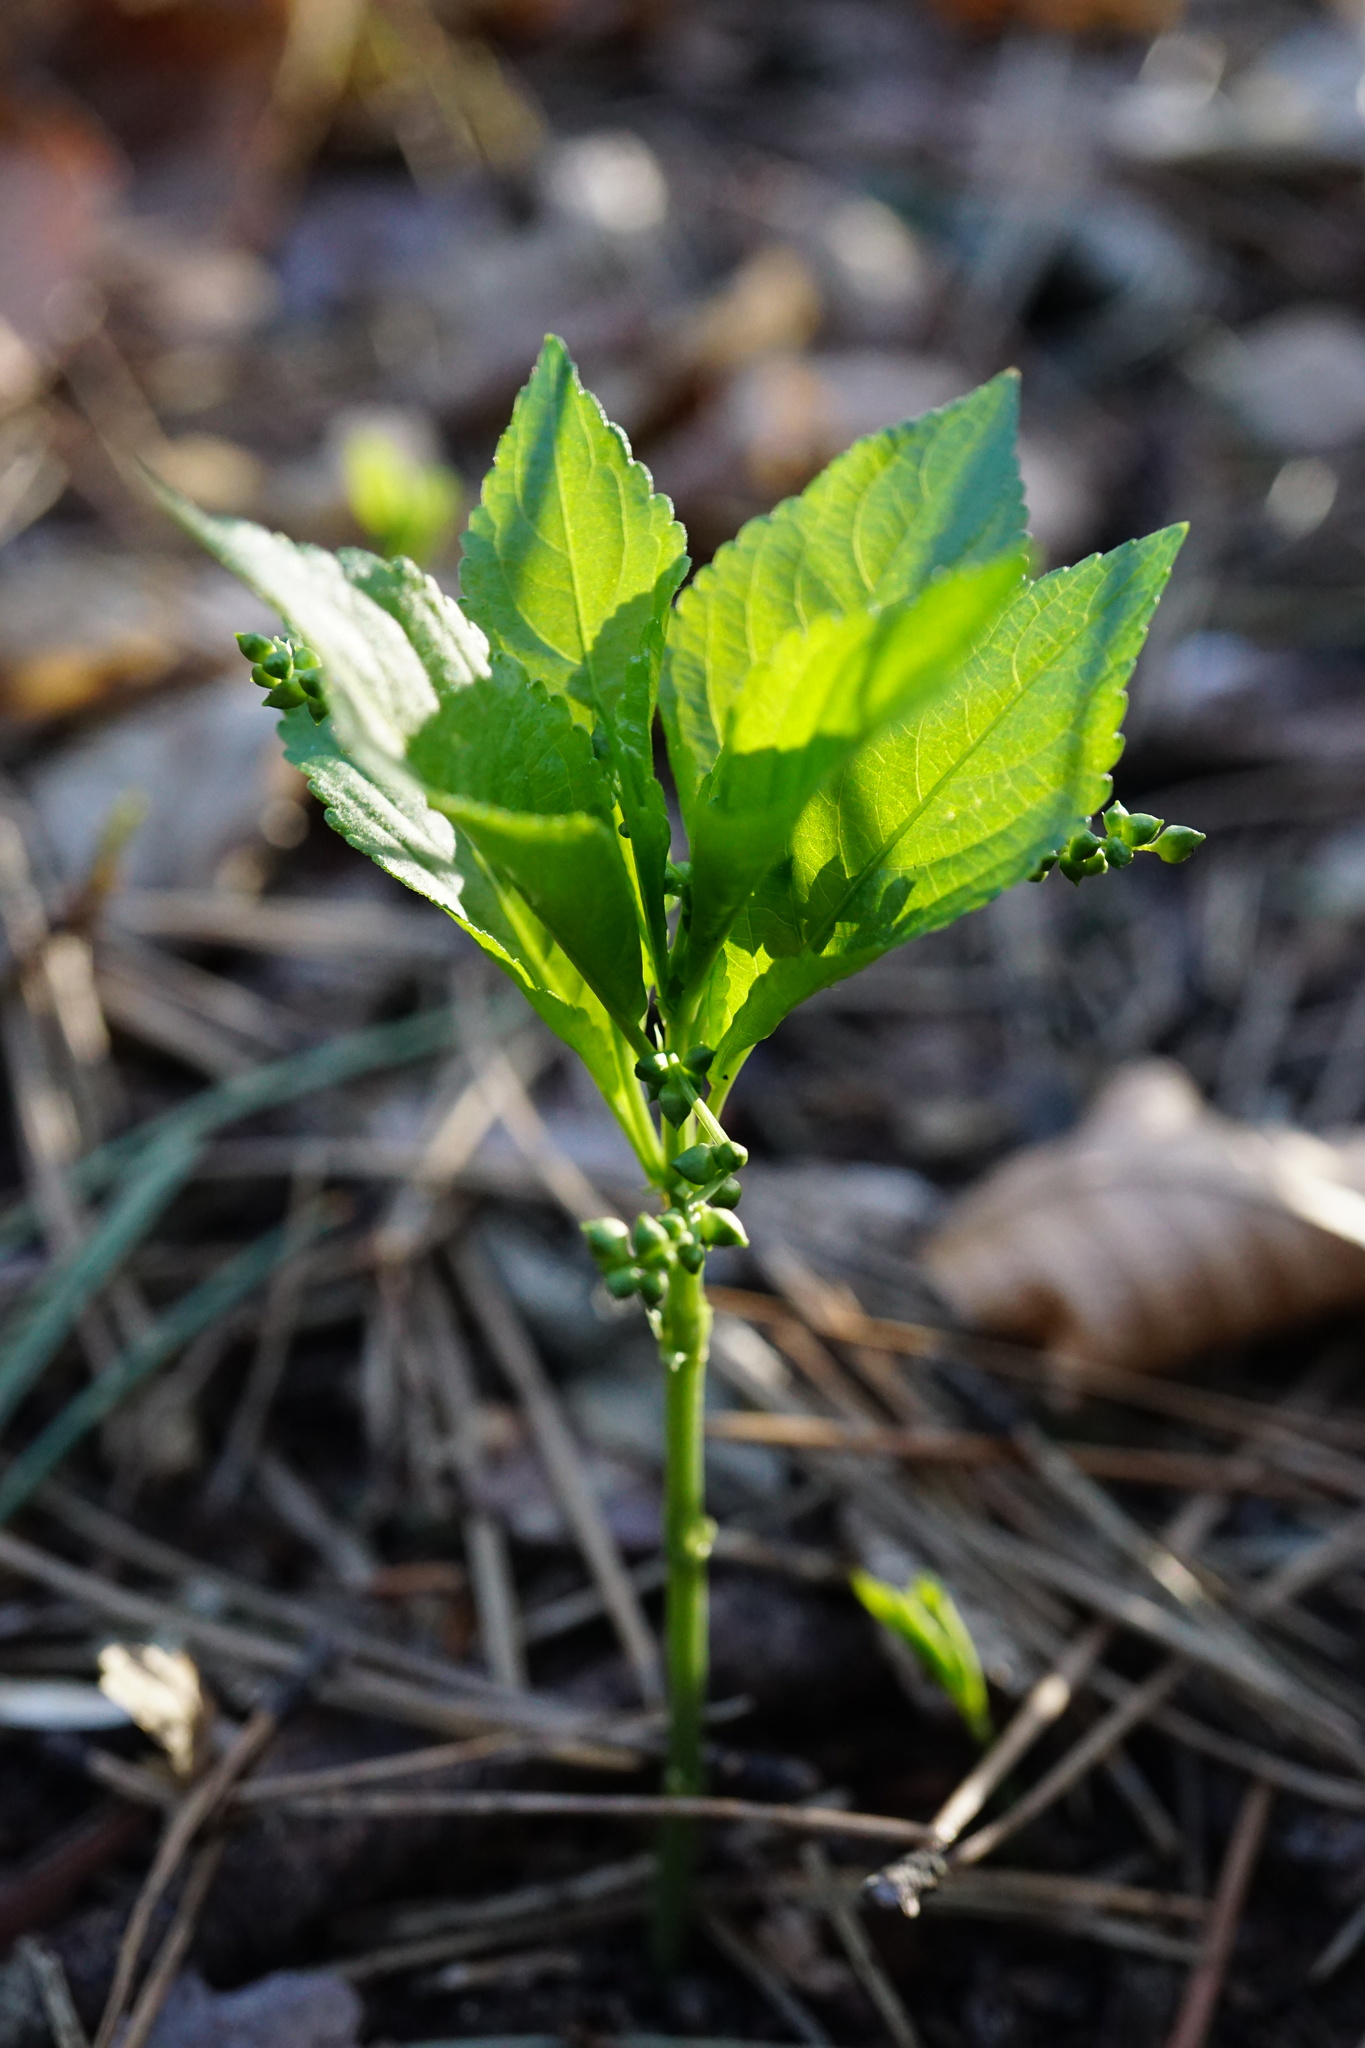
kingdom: Plantae
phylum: Tracheophyta
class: Magnoliopsida
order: Malpighiales
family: Euphorbiaceae
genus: Mercurialis
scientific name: Mercurialis perennis
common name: Dog mercury
